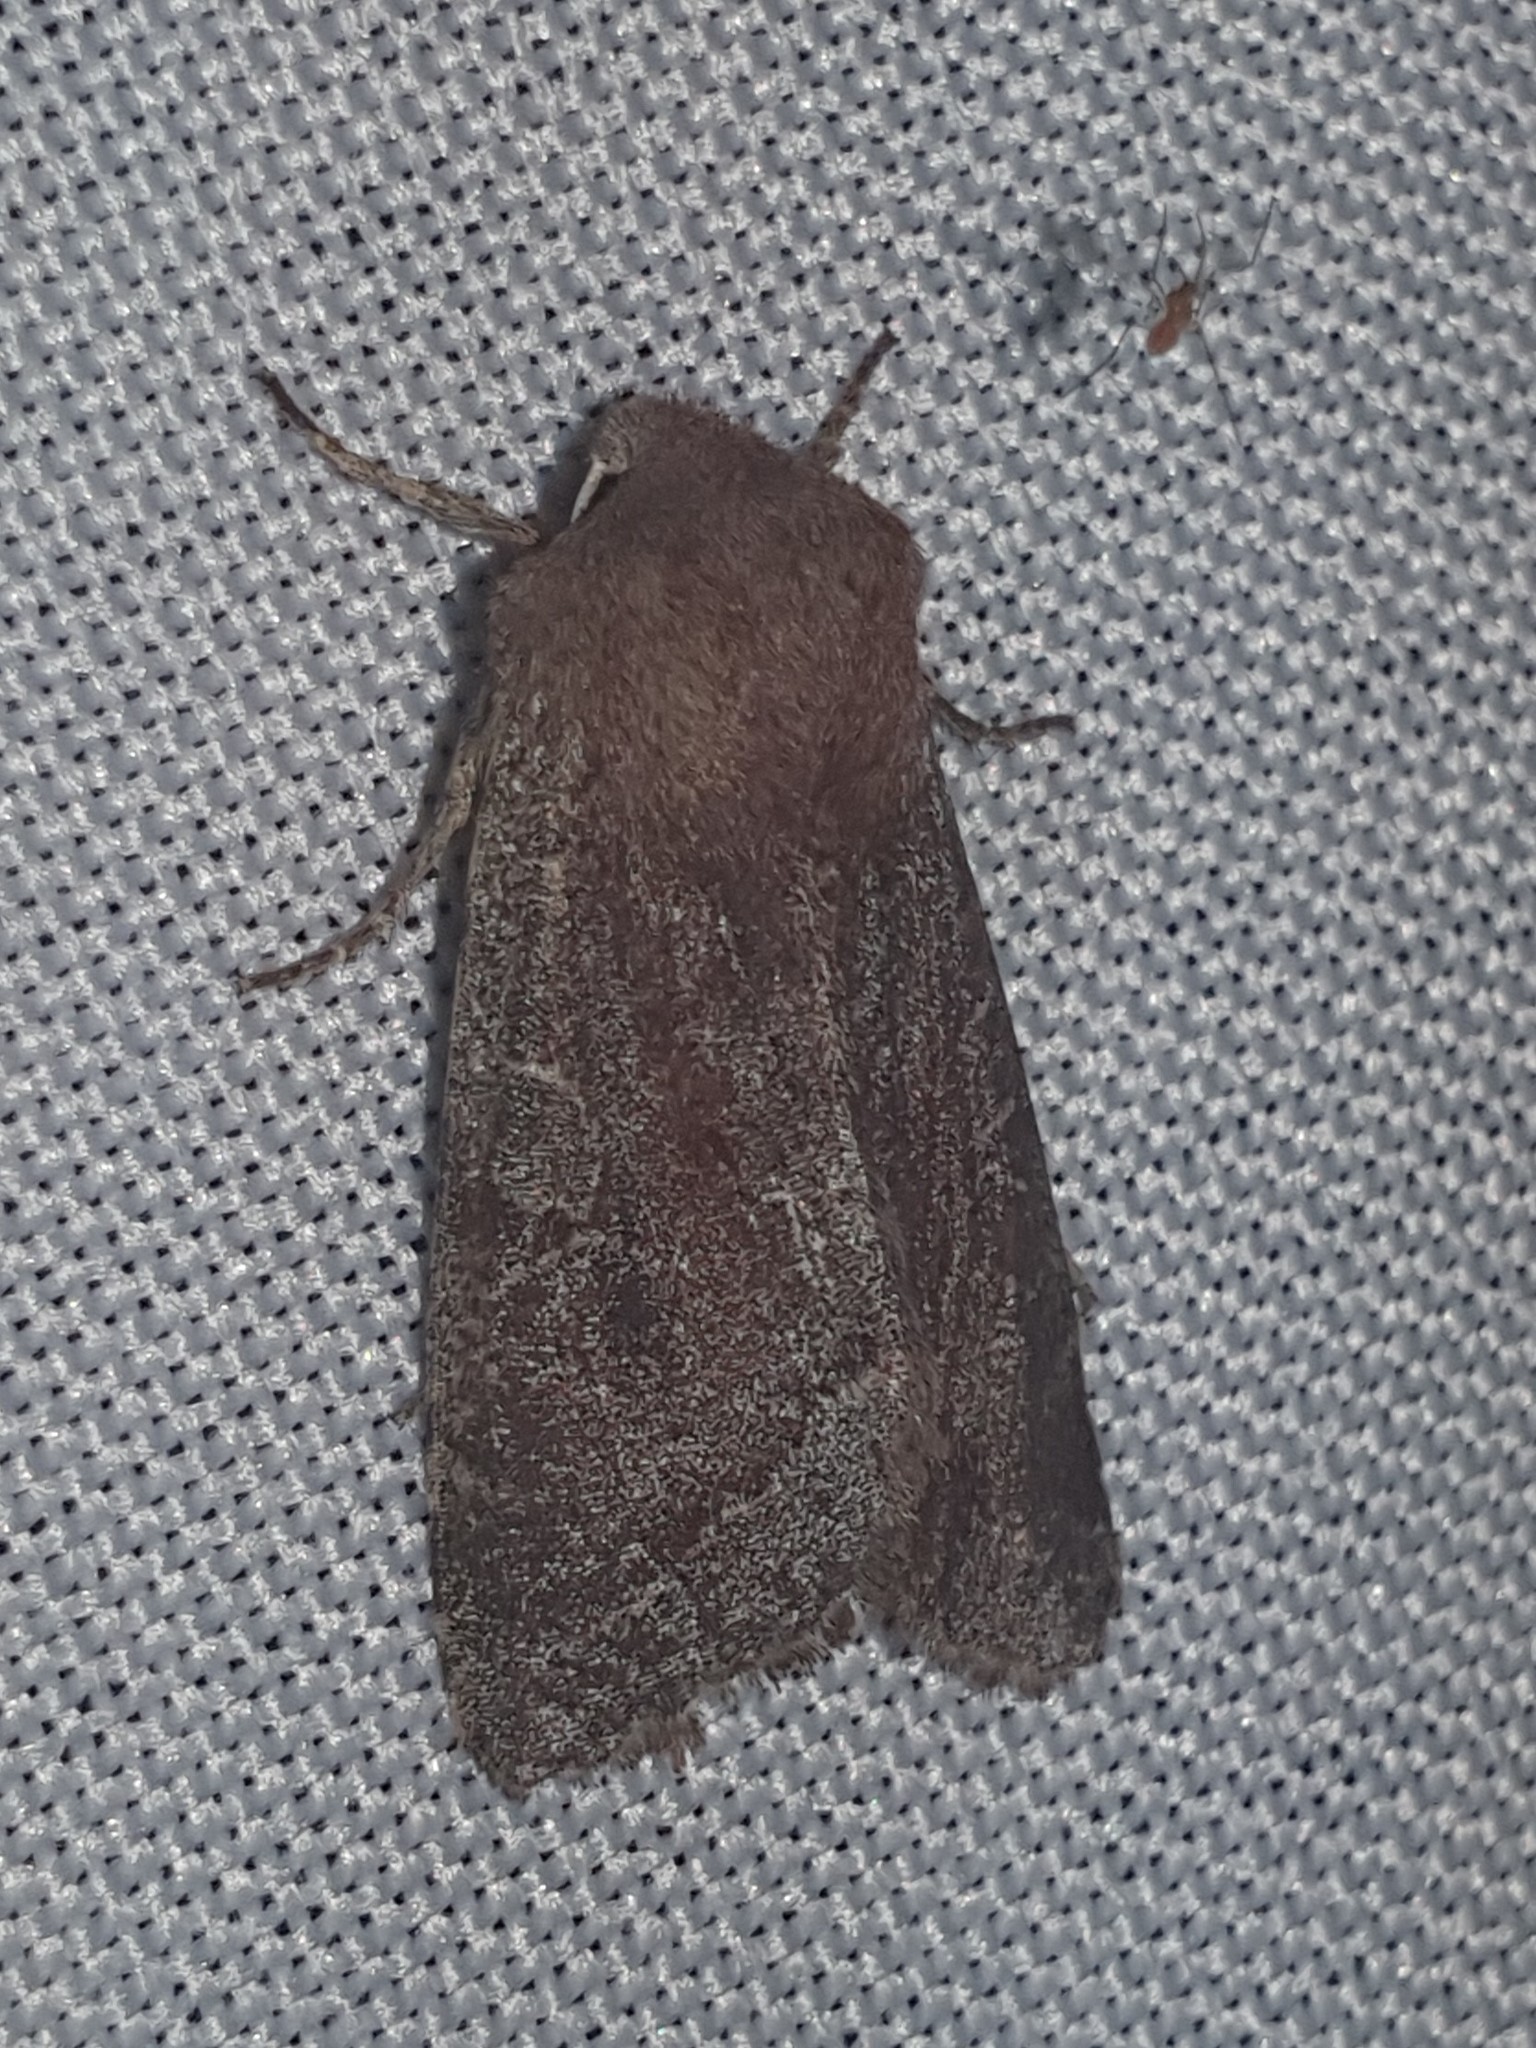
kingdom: Animalia
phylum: Arthropoda
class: Insecta
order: Lepidoptera
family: Noctuidae
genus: Orthosia
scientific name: Orthosia incerta
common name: Clouded drab
